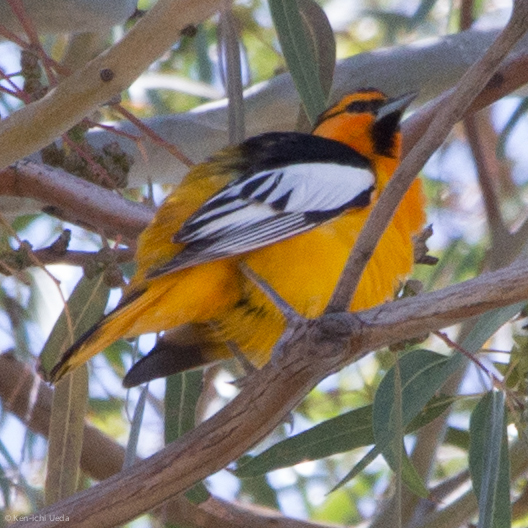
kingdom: Animalia
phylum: Chordata
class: Aves
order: Passeriformes
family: Icteridae
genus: Icterus
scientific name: Icterus bullockii
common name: Bullock's oriole
